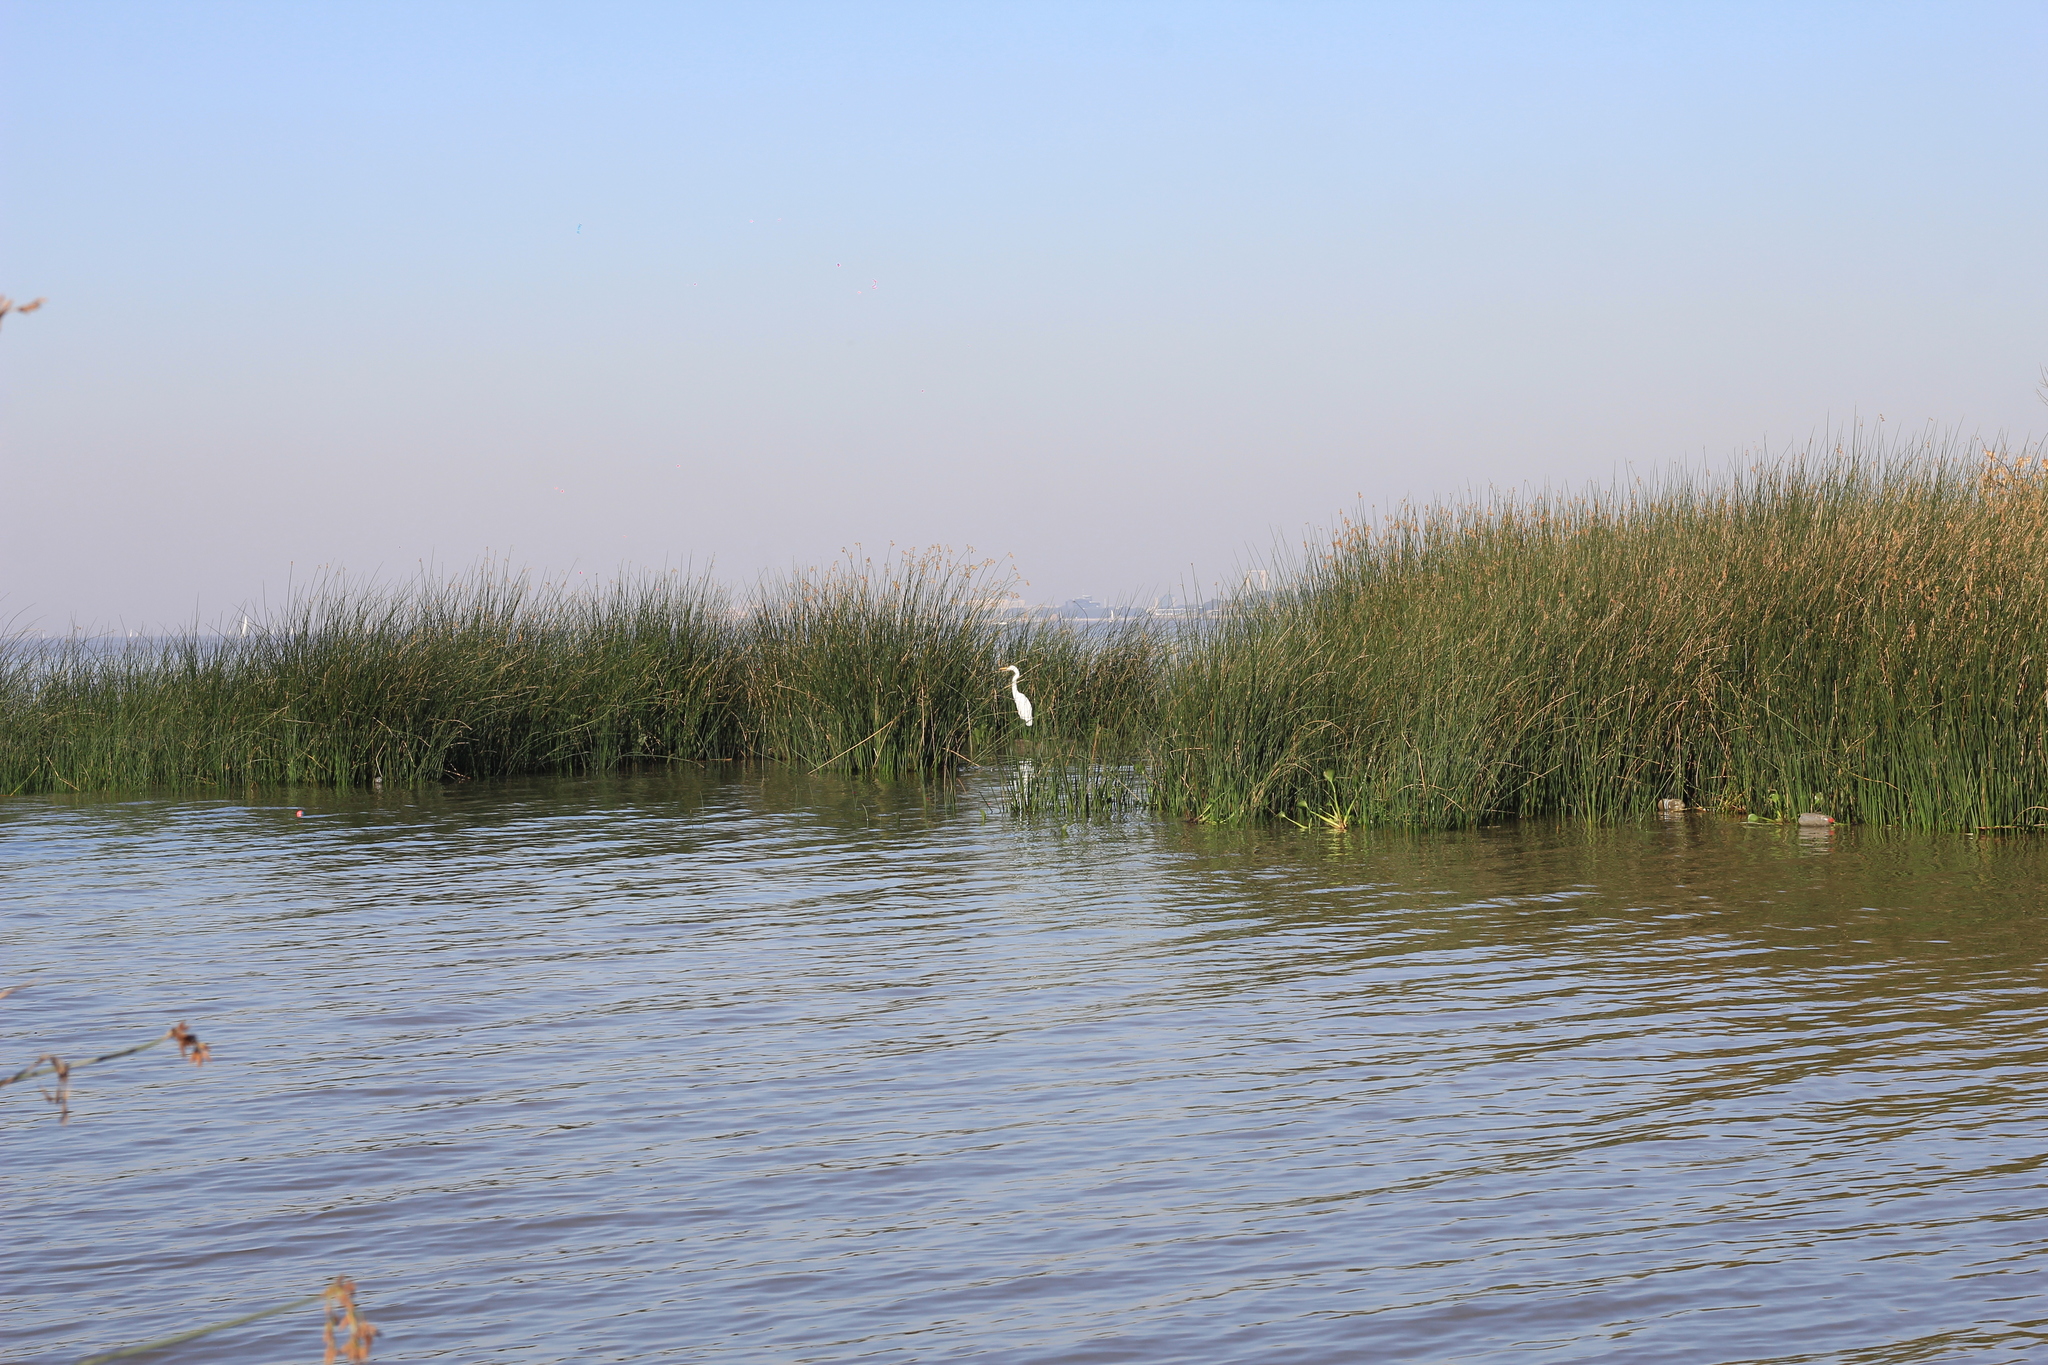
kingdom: Animalia
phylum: Chordata
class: Aves
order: Pelecaniformes
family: Ardeidae
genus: Ardea
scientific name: Ardea alba
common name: Great egret
